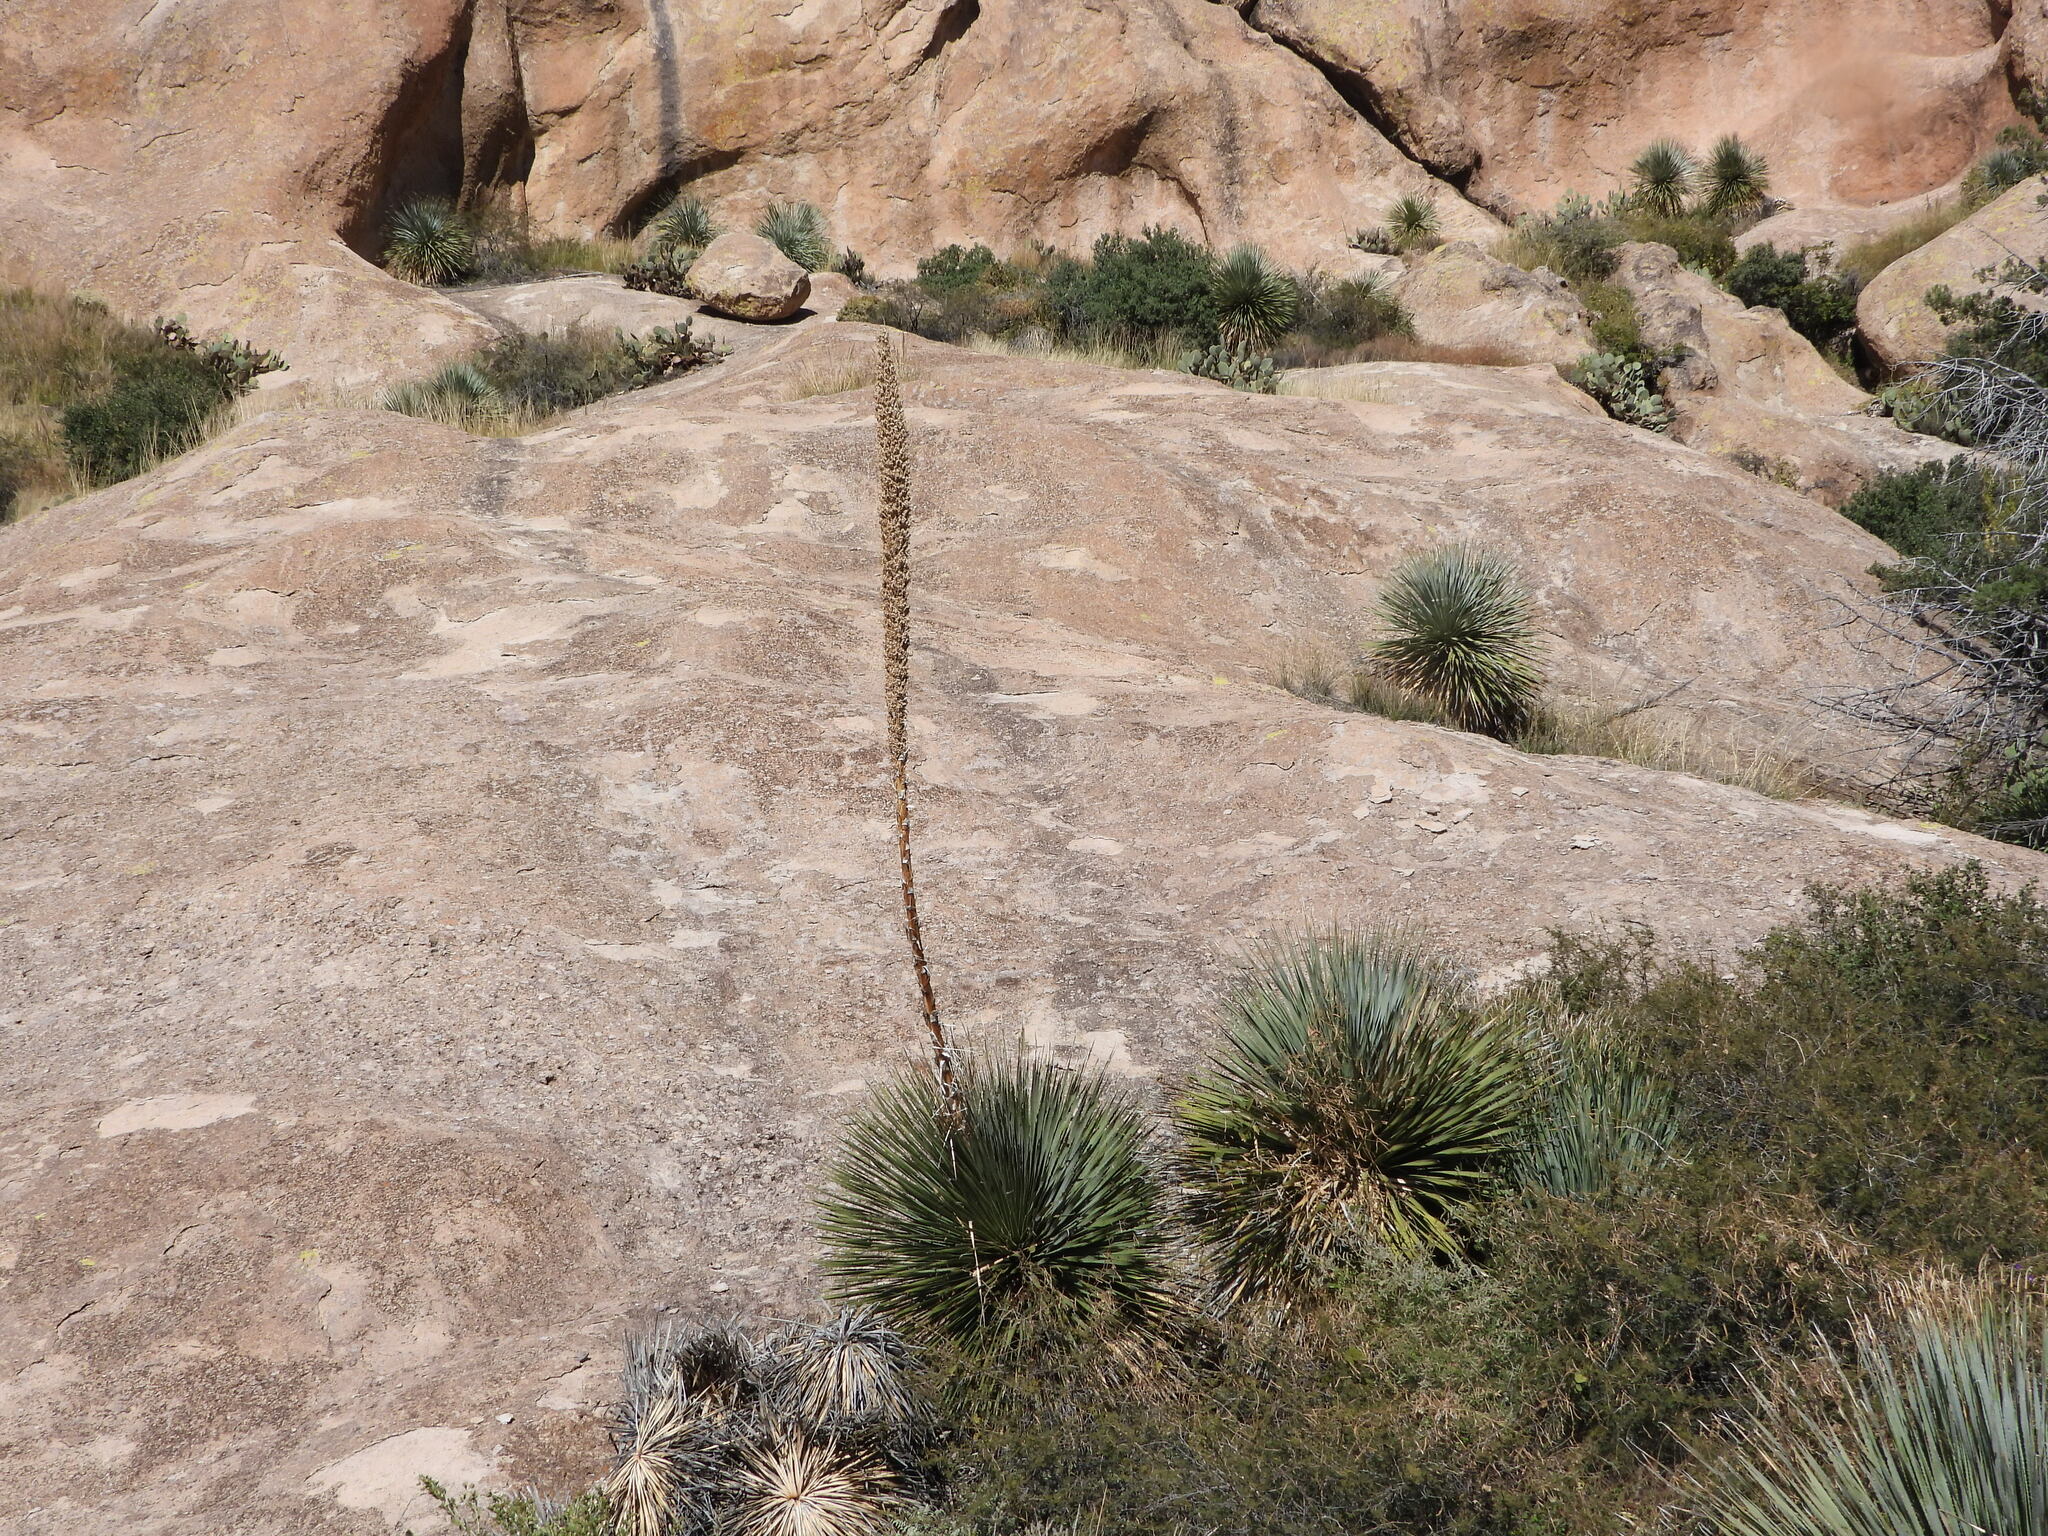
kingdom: Plantae
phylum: Tracheophyta
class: Liliopsida
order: Asparagales
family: Asparagaceae
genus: Dasylirion
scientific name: Dasylirion wheeleri
